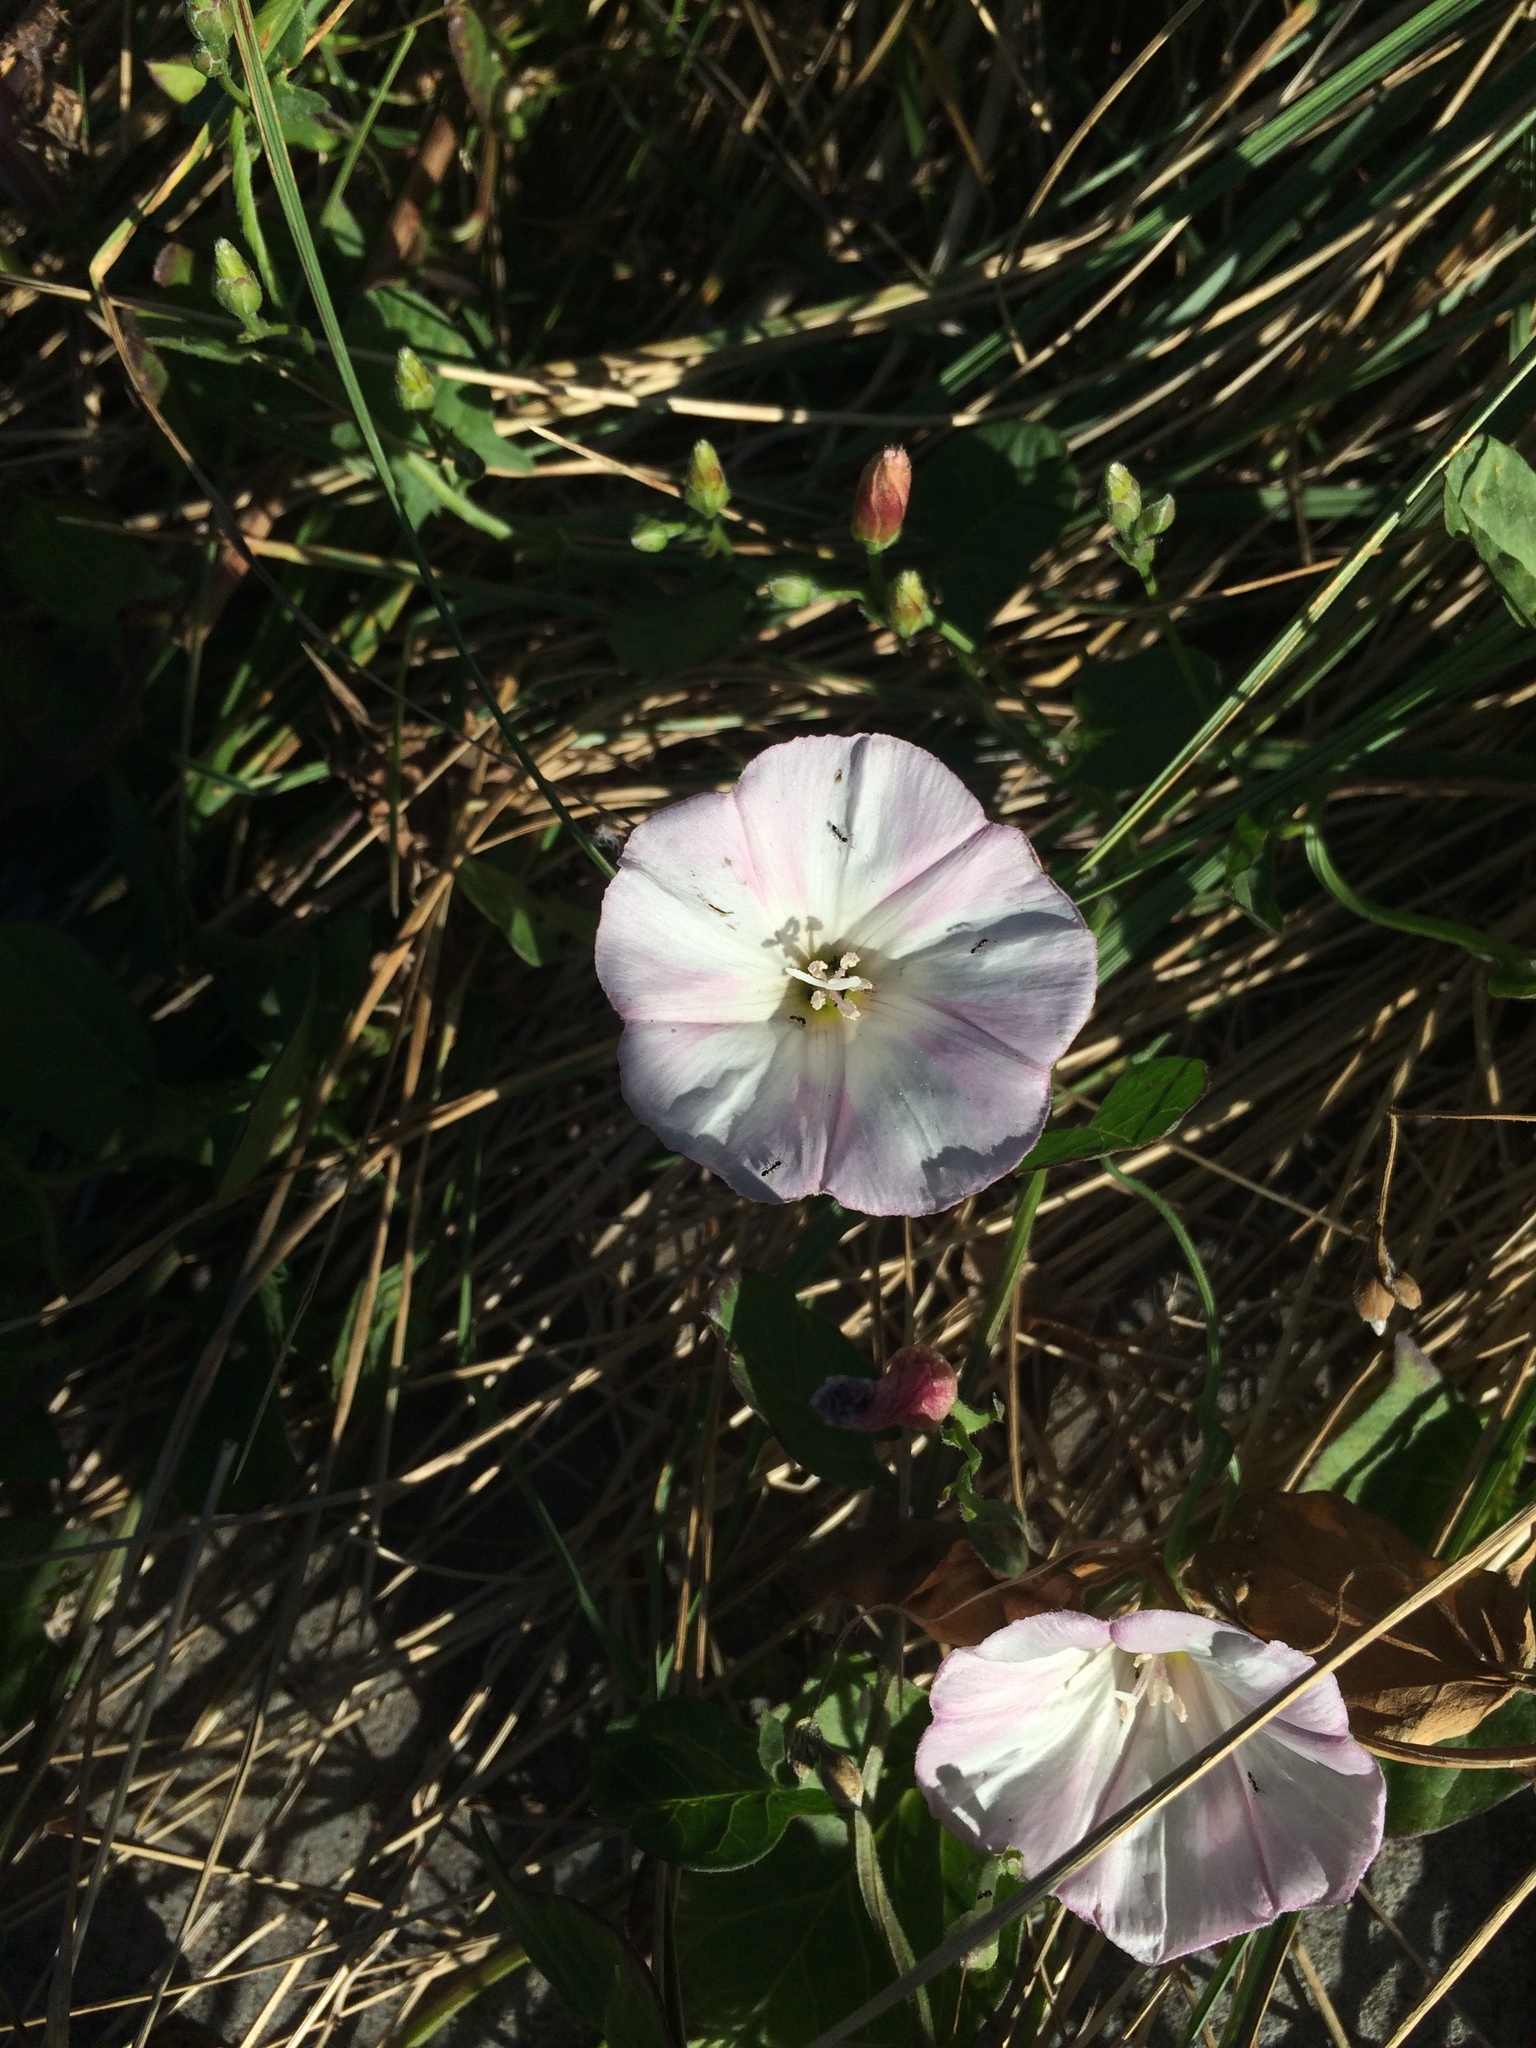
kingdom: Plantae
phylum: Tracheophyta
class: Magnoliopsida
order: Solanales
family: Convolvulaceae
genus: Convolvulus
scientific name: Convolvulus arvensis
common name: Field bindweed
